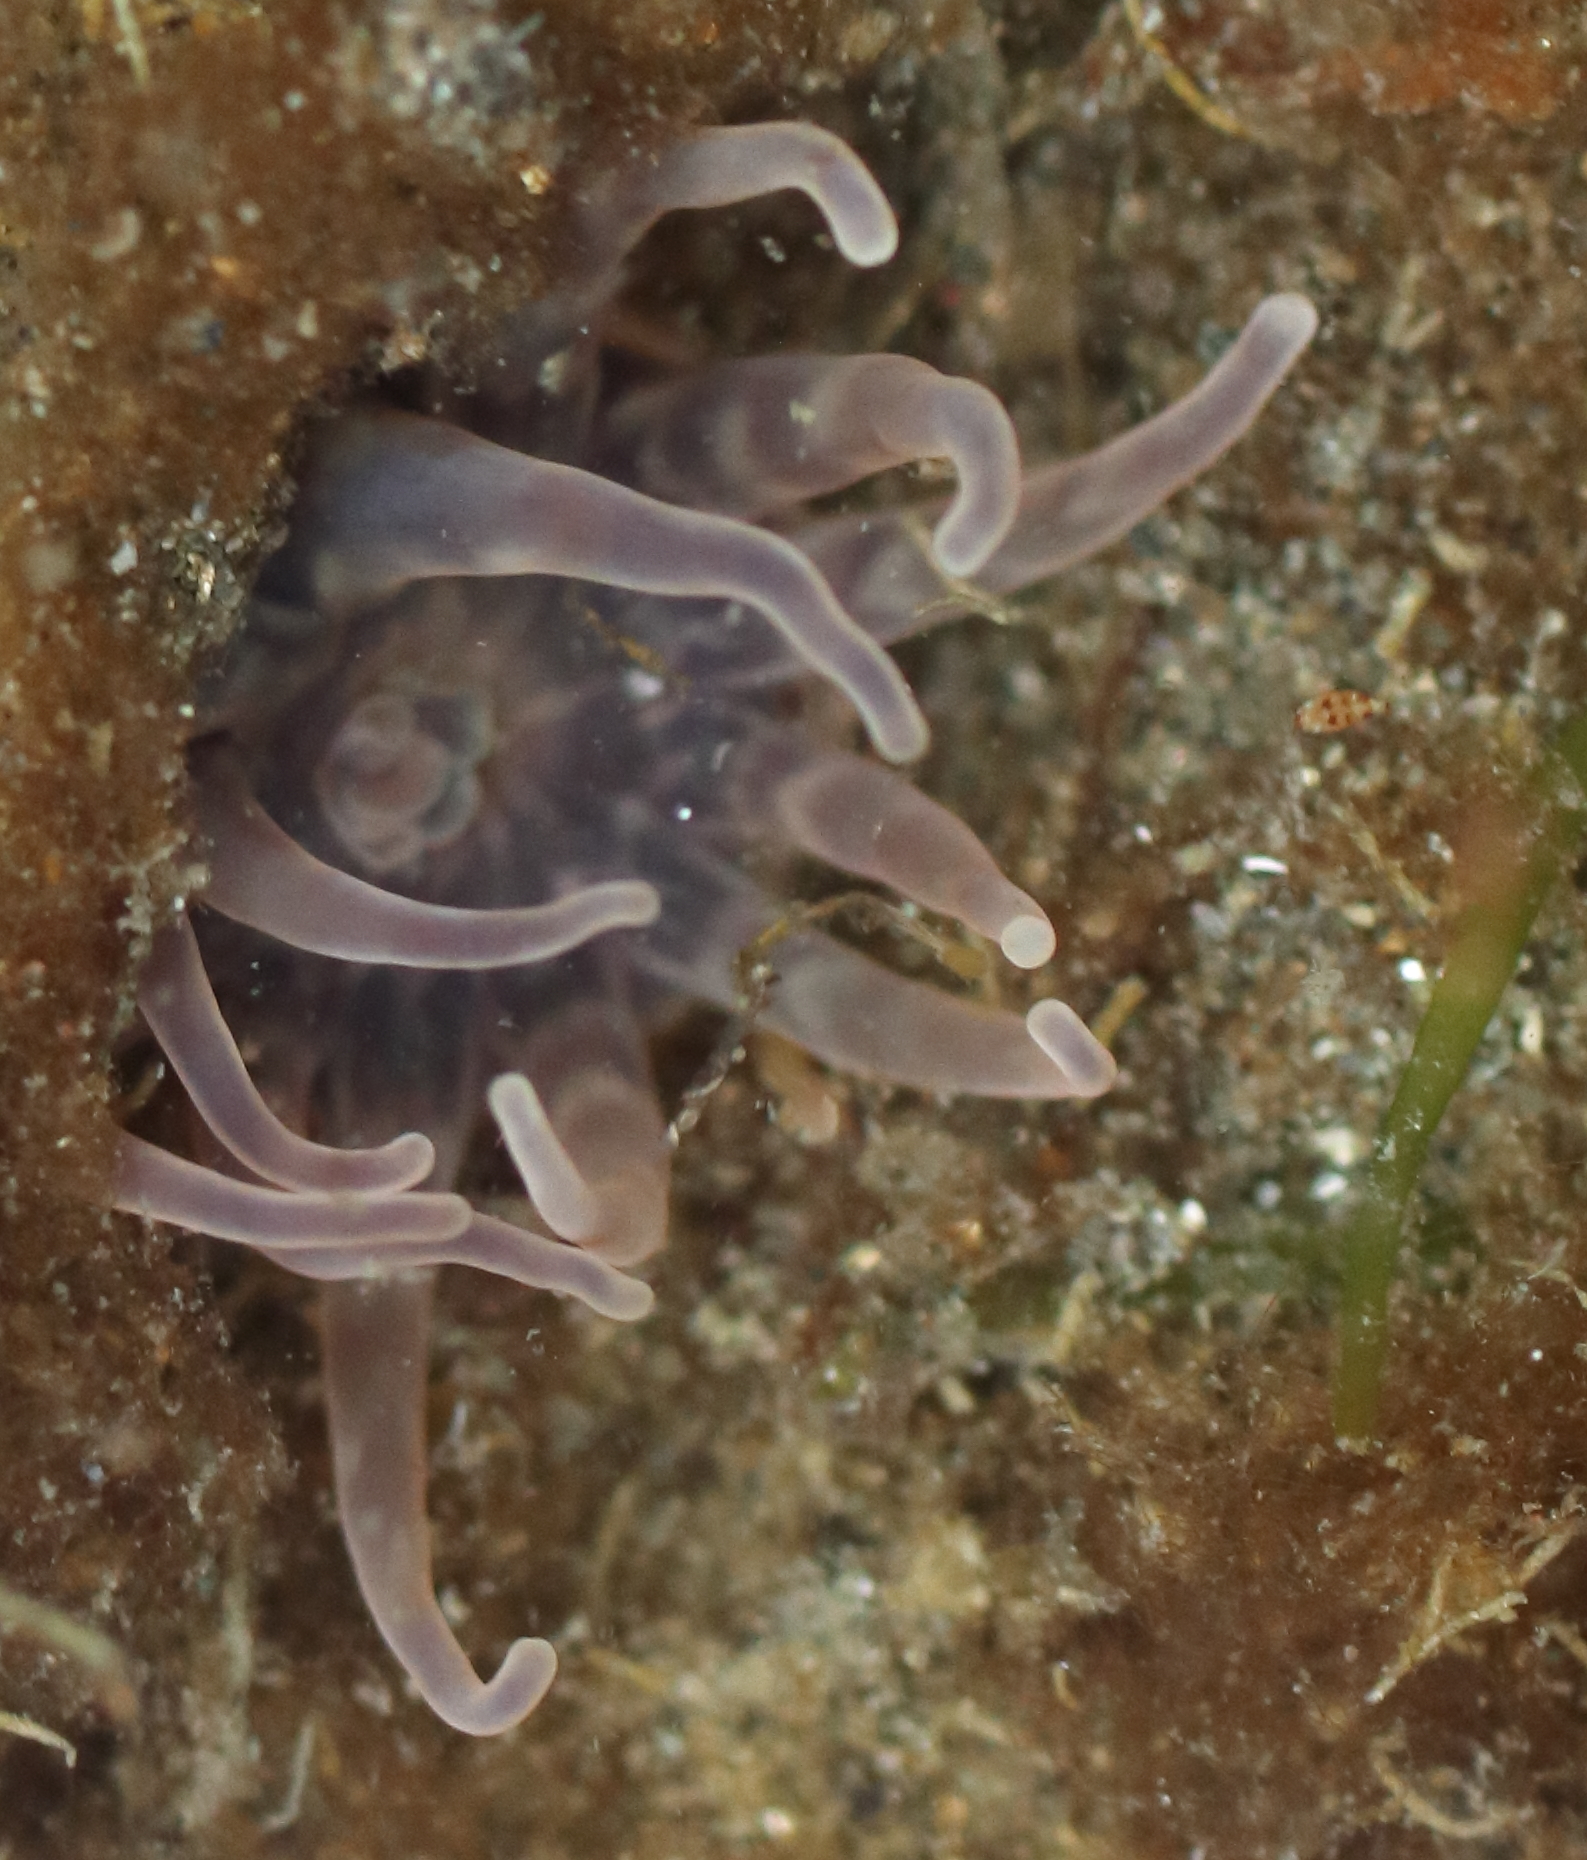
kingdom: Animalia
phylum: Cnidaria
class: Anthozoa
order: Actiniaria
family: Peachiidae
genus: Peachia
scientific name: Peachia quinquecapitata
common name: Twelve-tentacled parasitic anemone
